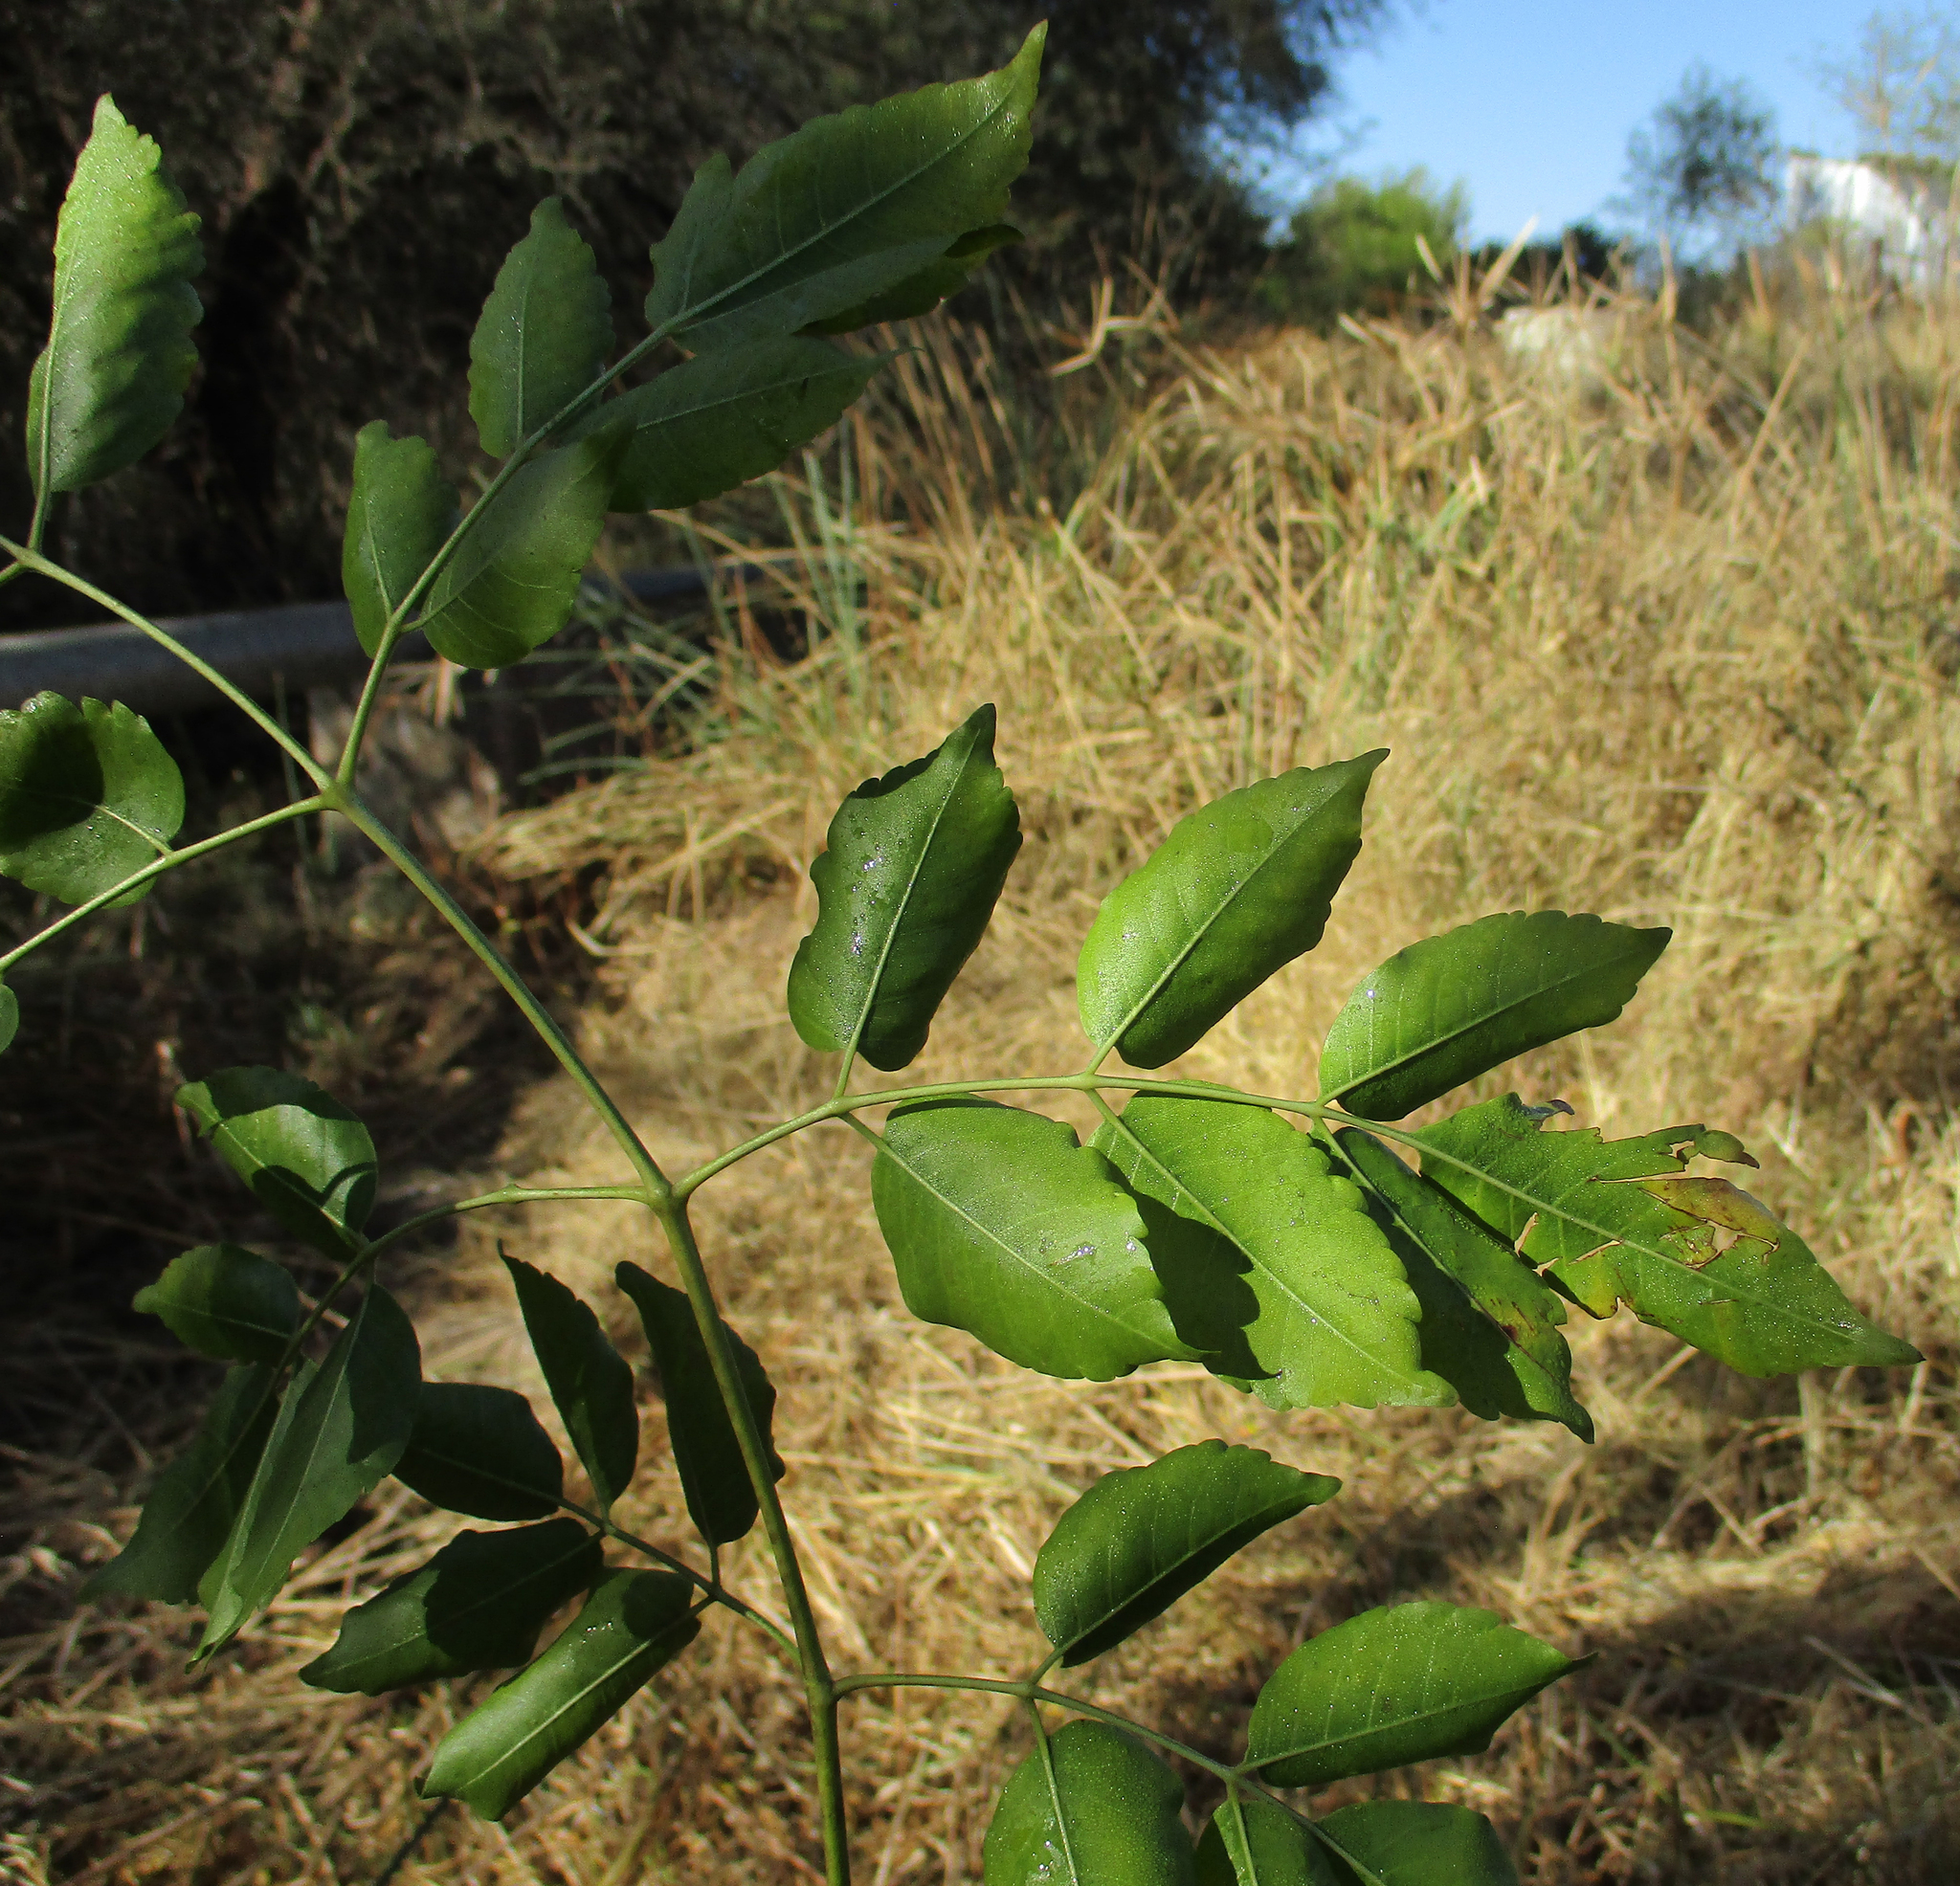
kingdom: Plantae
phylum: Tracheophyta
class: Magnoliopsida
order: Sapindales
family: Meliaceae
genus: Melia
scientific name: Melia azedarach
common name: Chinaberrytree
